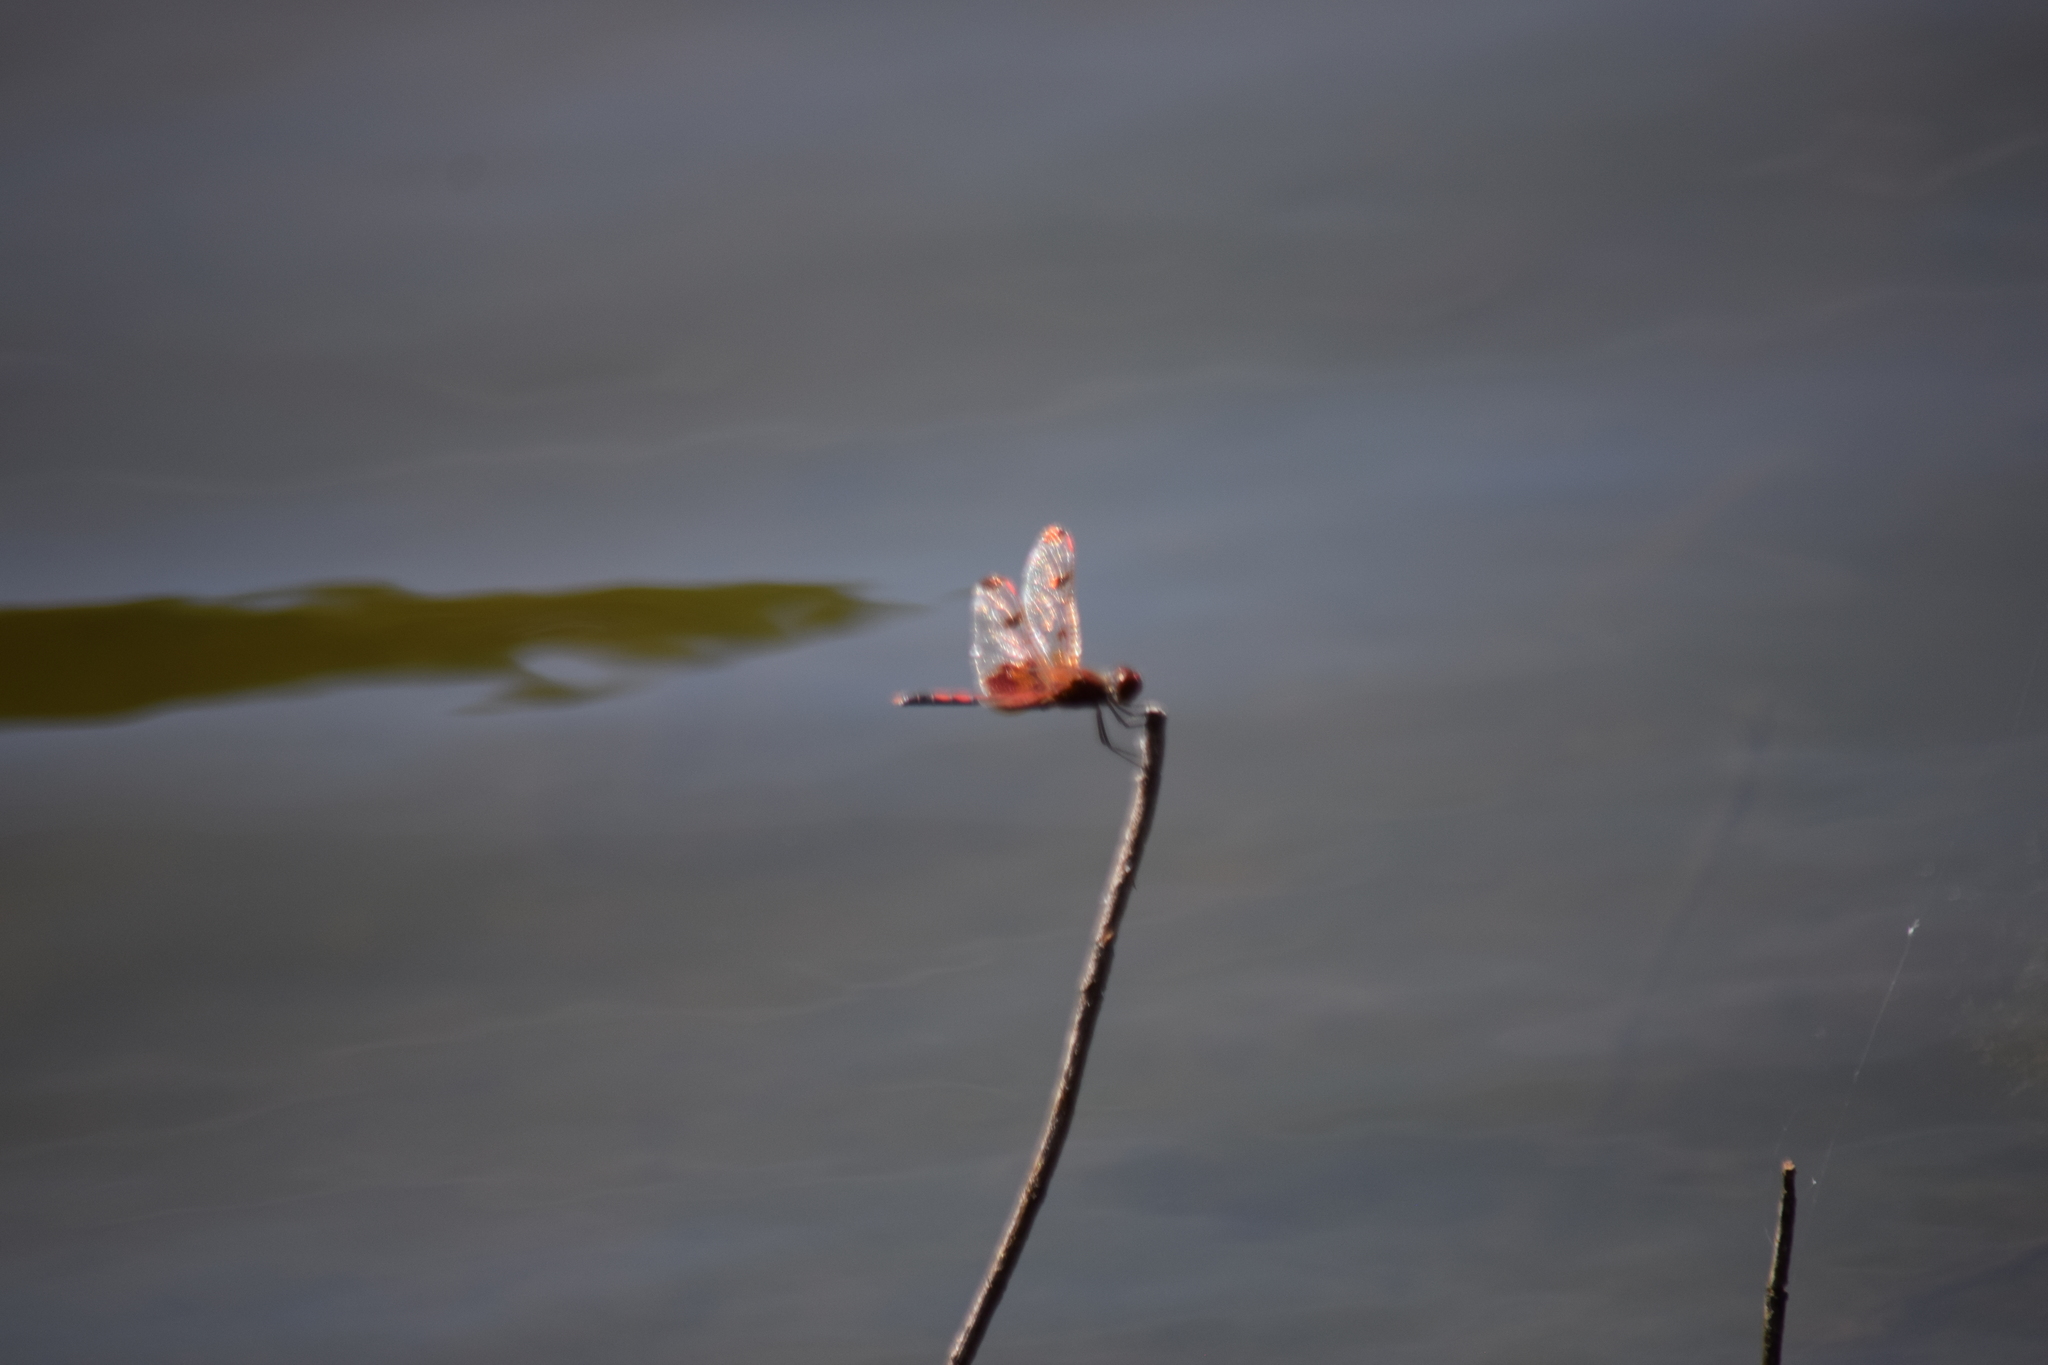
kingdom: Animalia
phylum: Arthropoda
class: Insecta
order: Odonata
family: Libellulidae
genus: Celithemis
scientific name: Celithemis elisa
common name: Calico pennant
